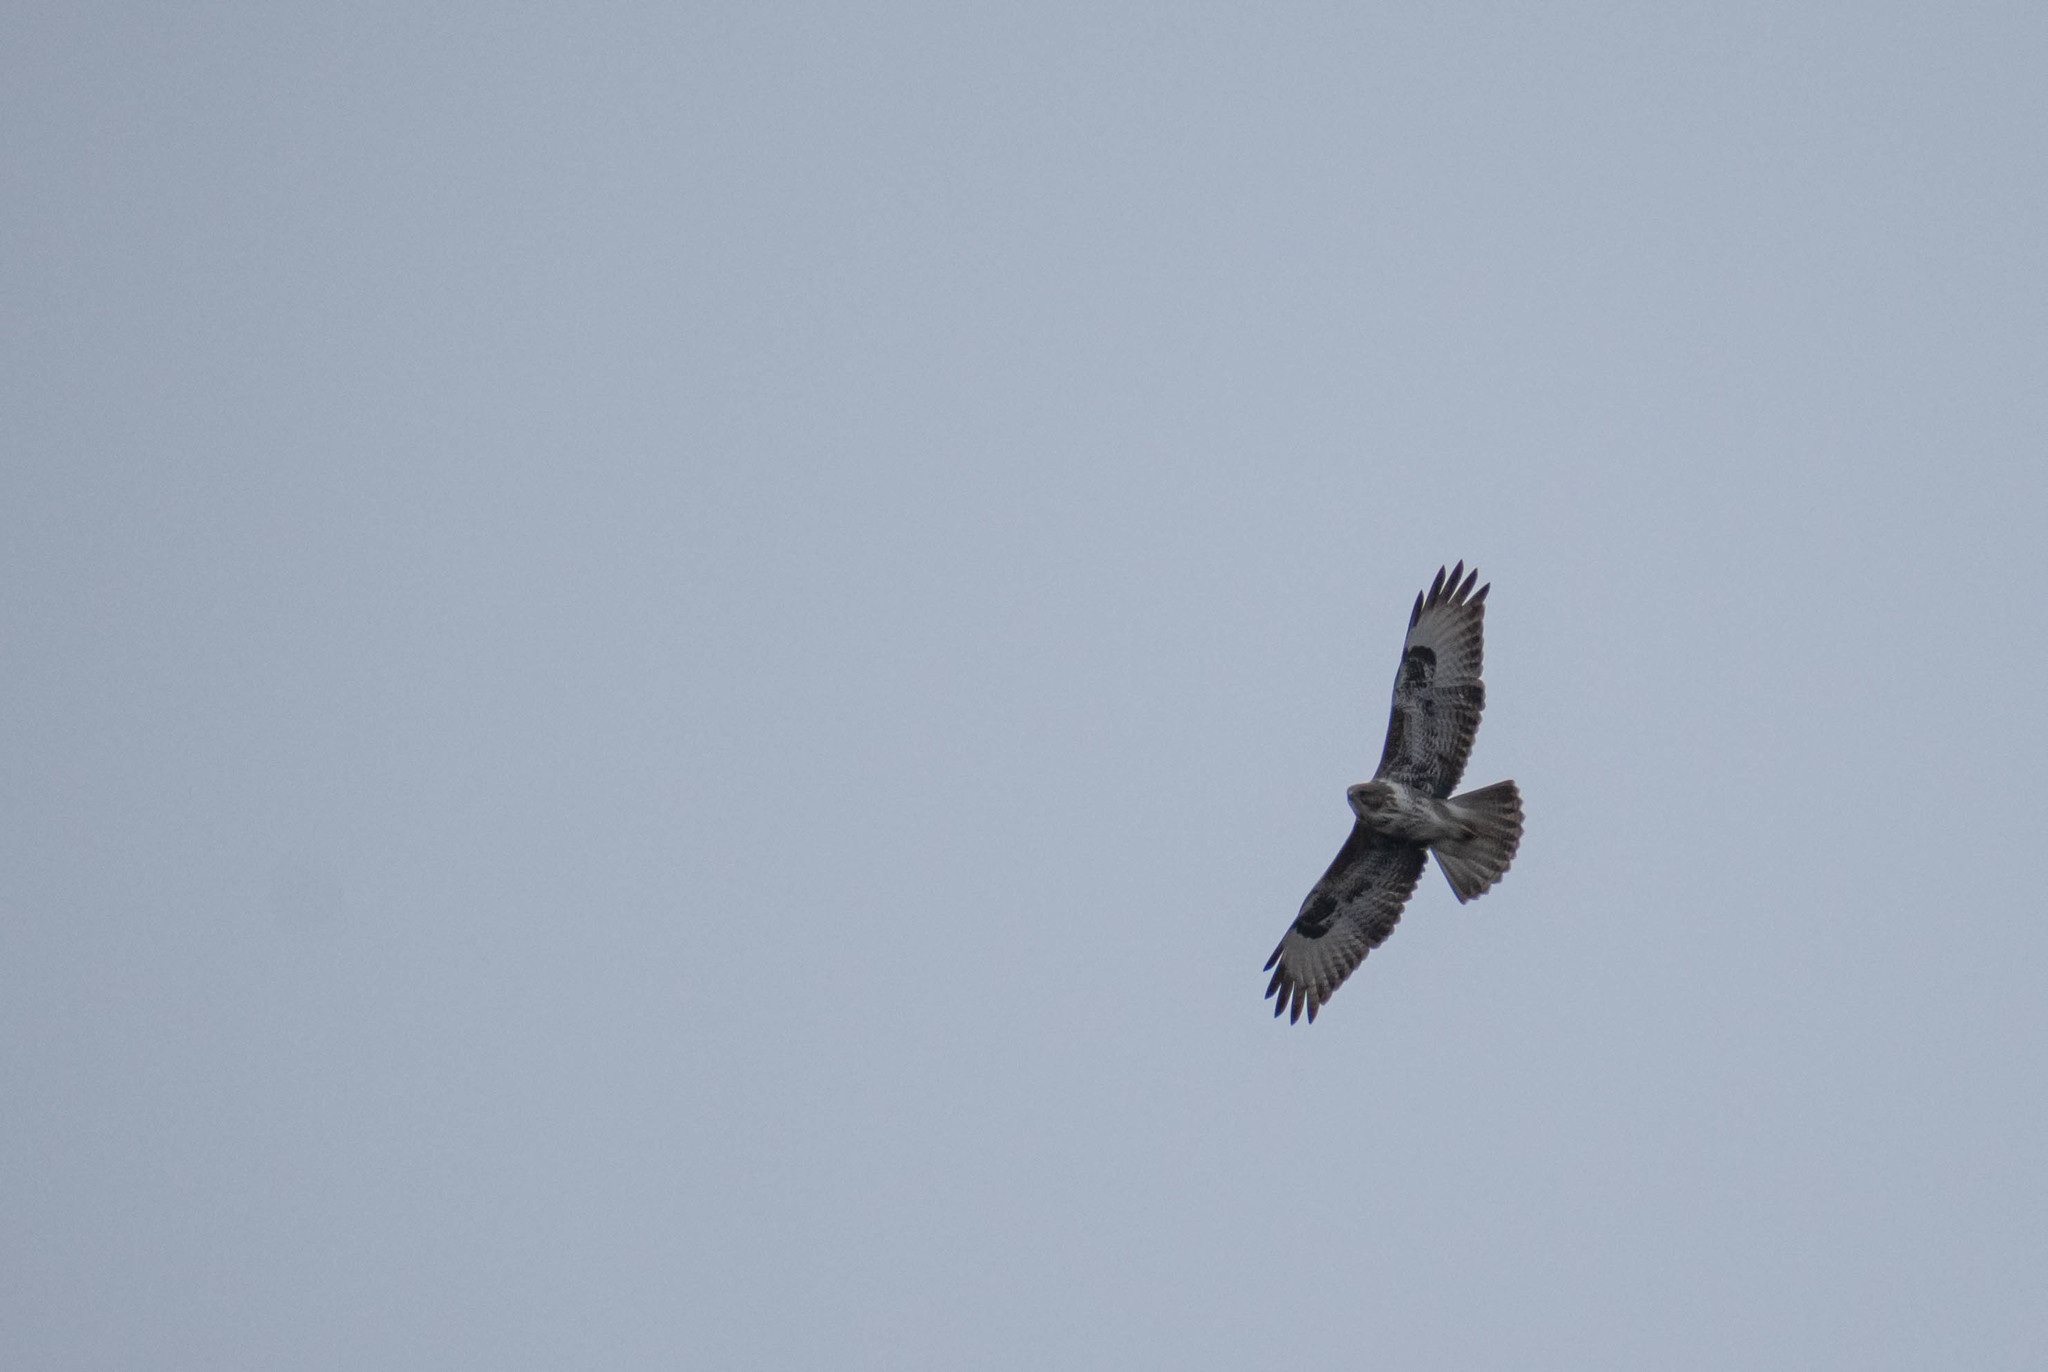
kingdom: Animalia
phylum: Chordata
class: Aves
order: Accipitriformes
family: Accipitridae
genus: Buteo
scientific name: Buteo buteo
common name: Common buzzard
